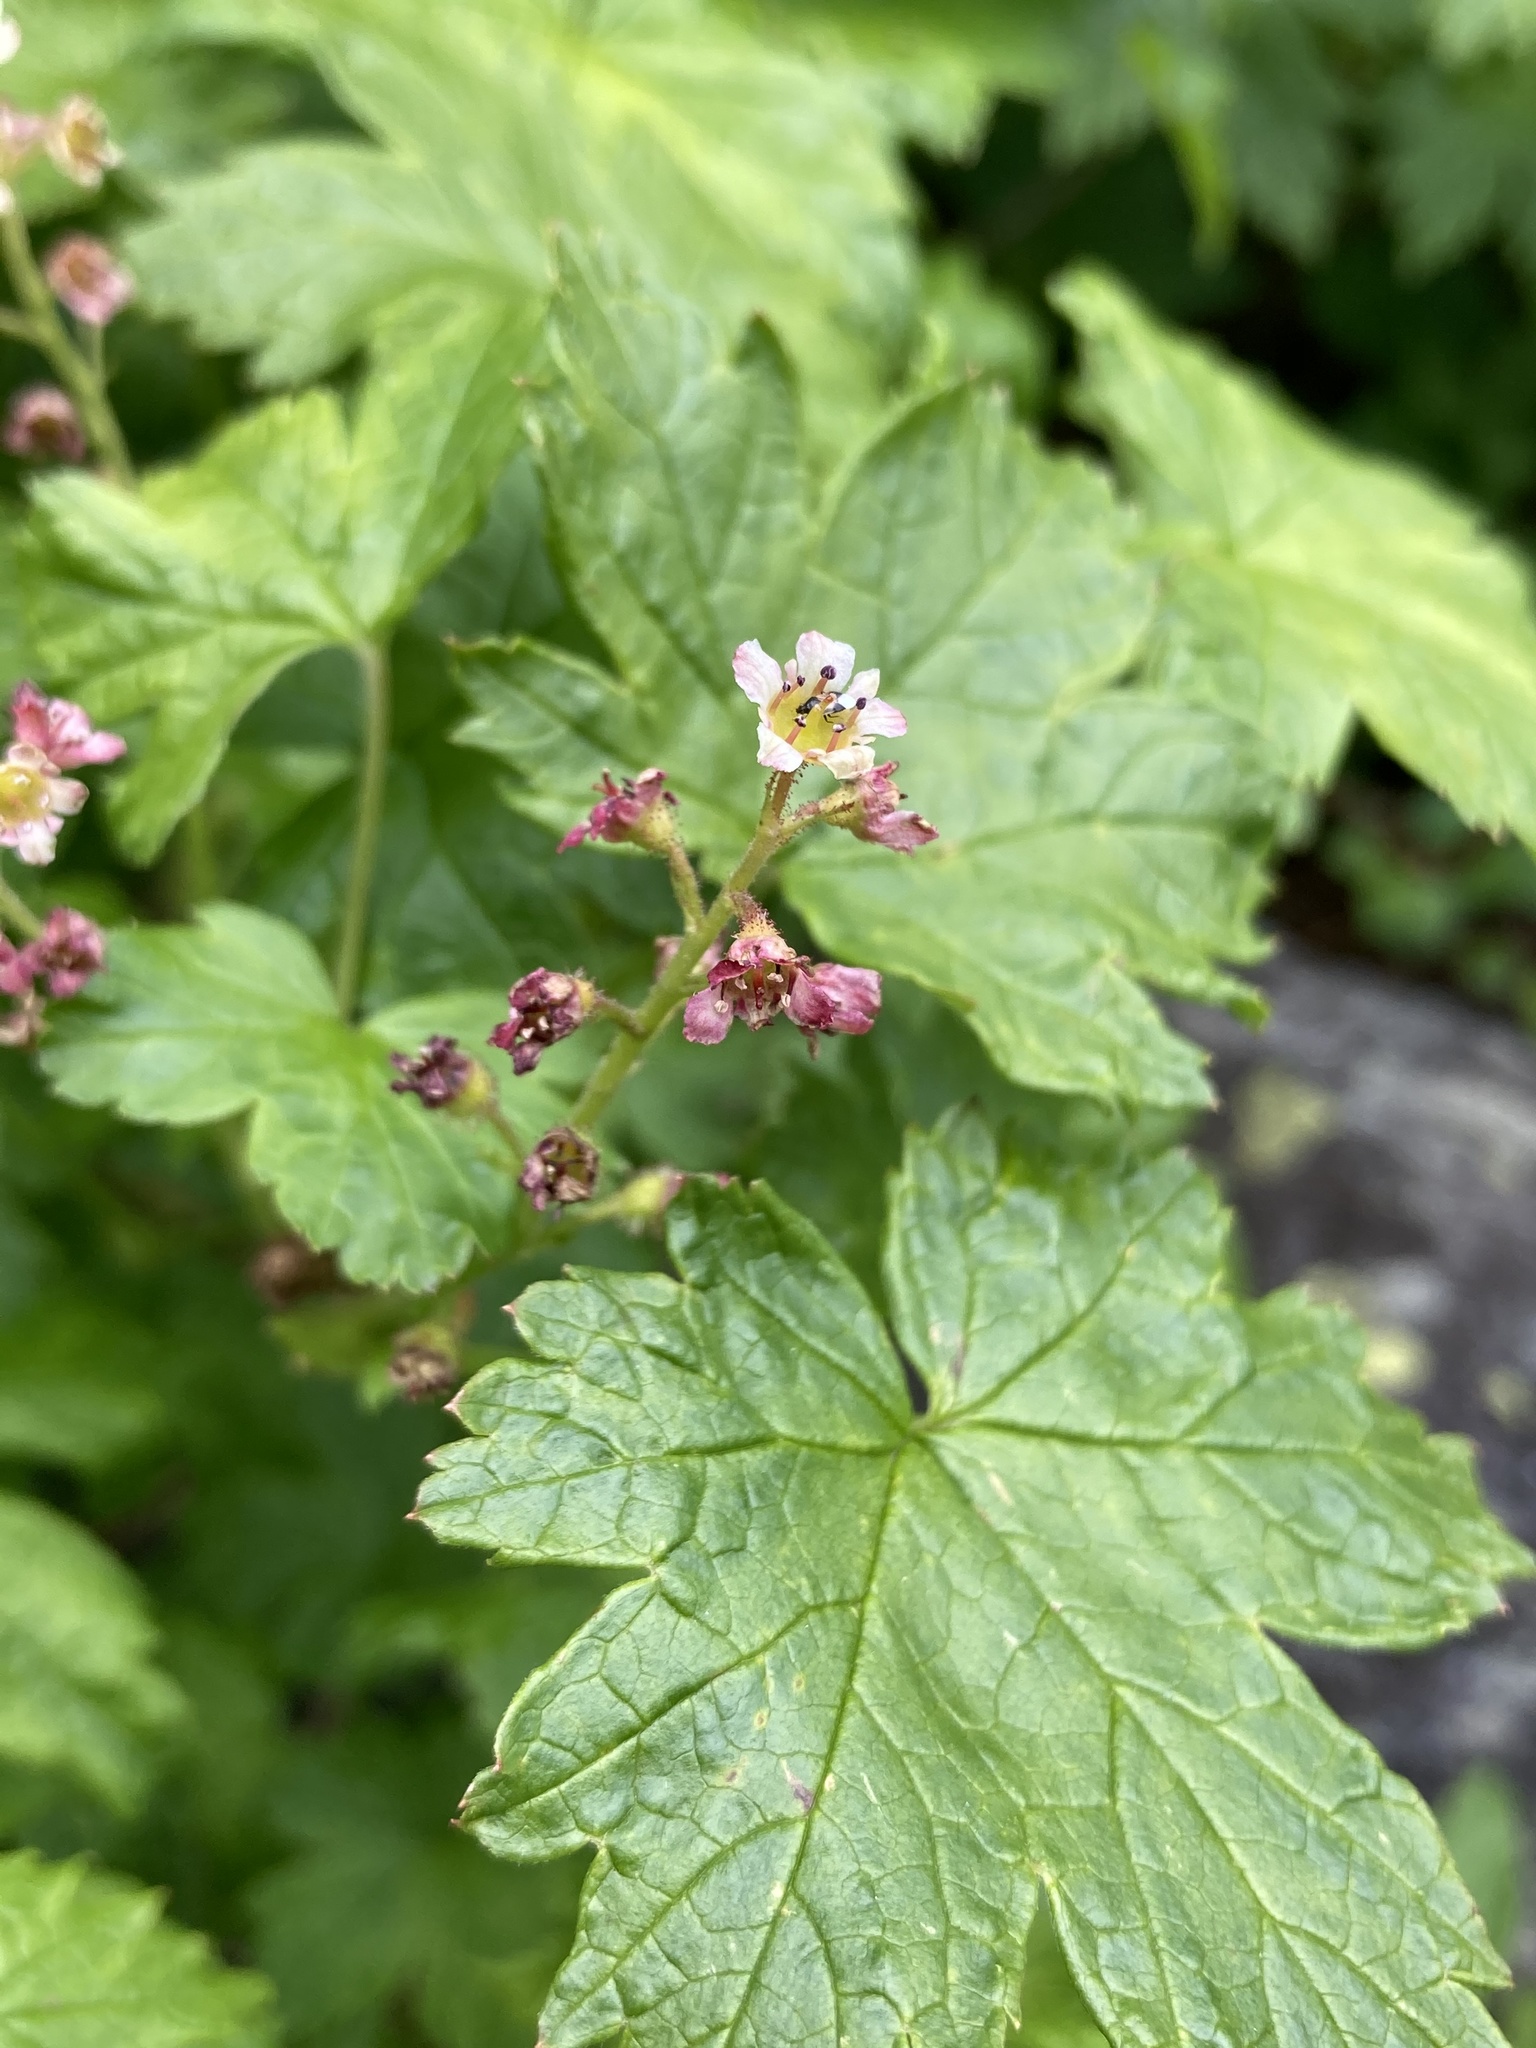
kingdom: Plantae
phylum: Tracheophyta
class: Magnoliopsida
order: Saxifragales
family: Grossulariaceae
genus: Ribes
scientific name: Ribes glandulosum
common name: Skunk currant
